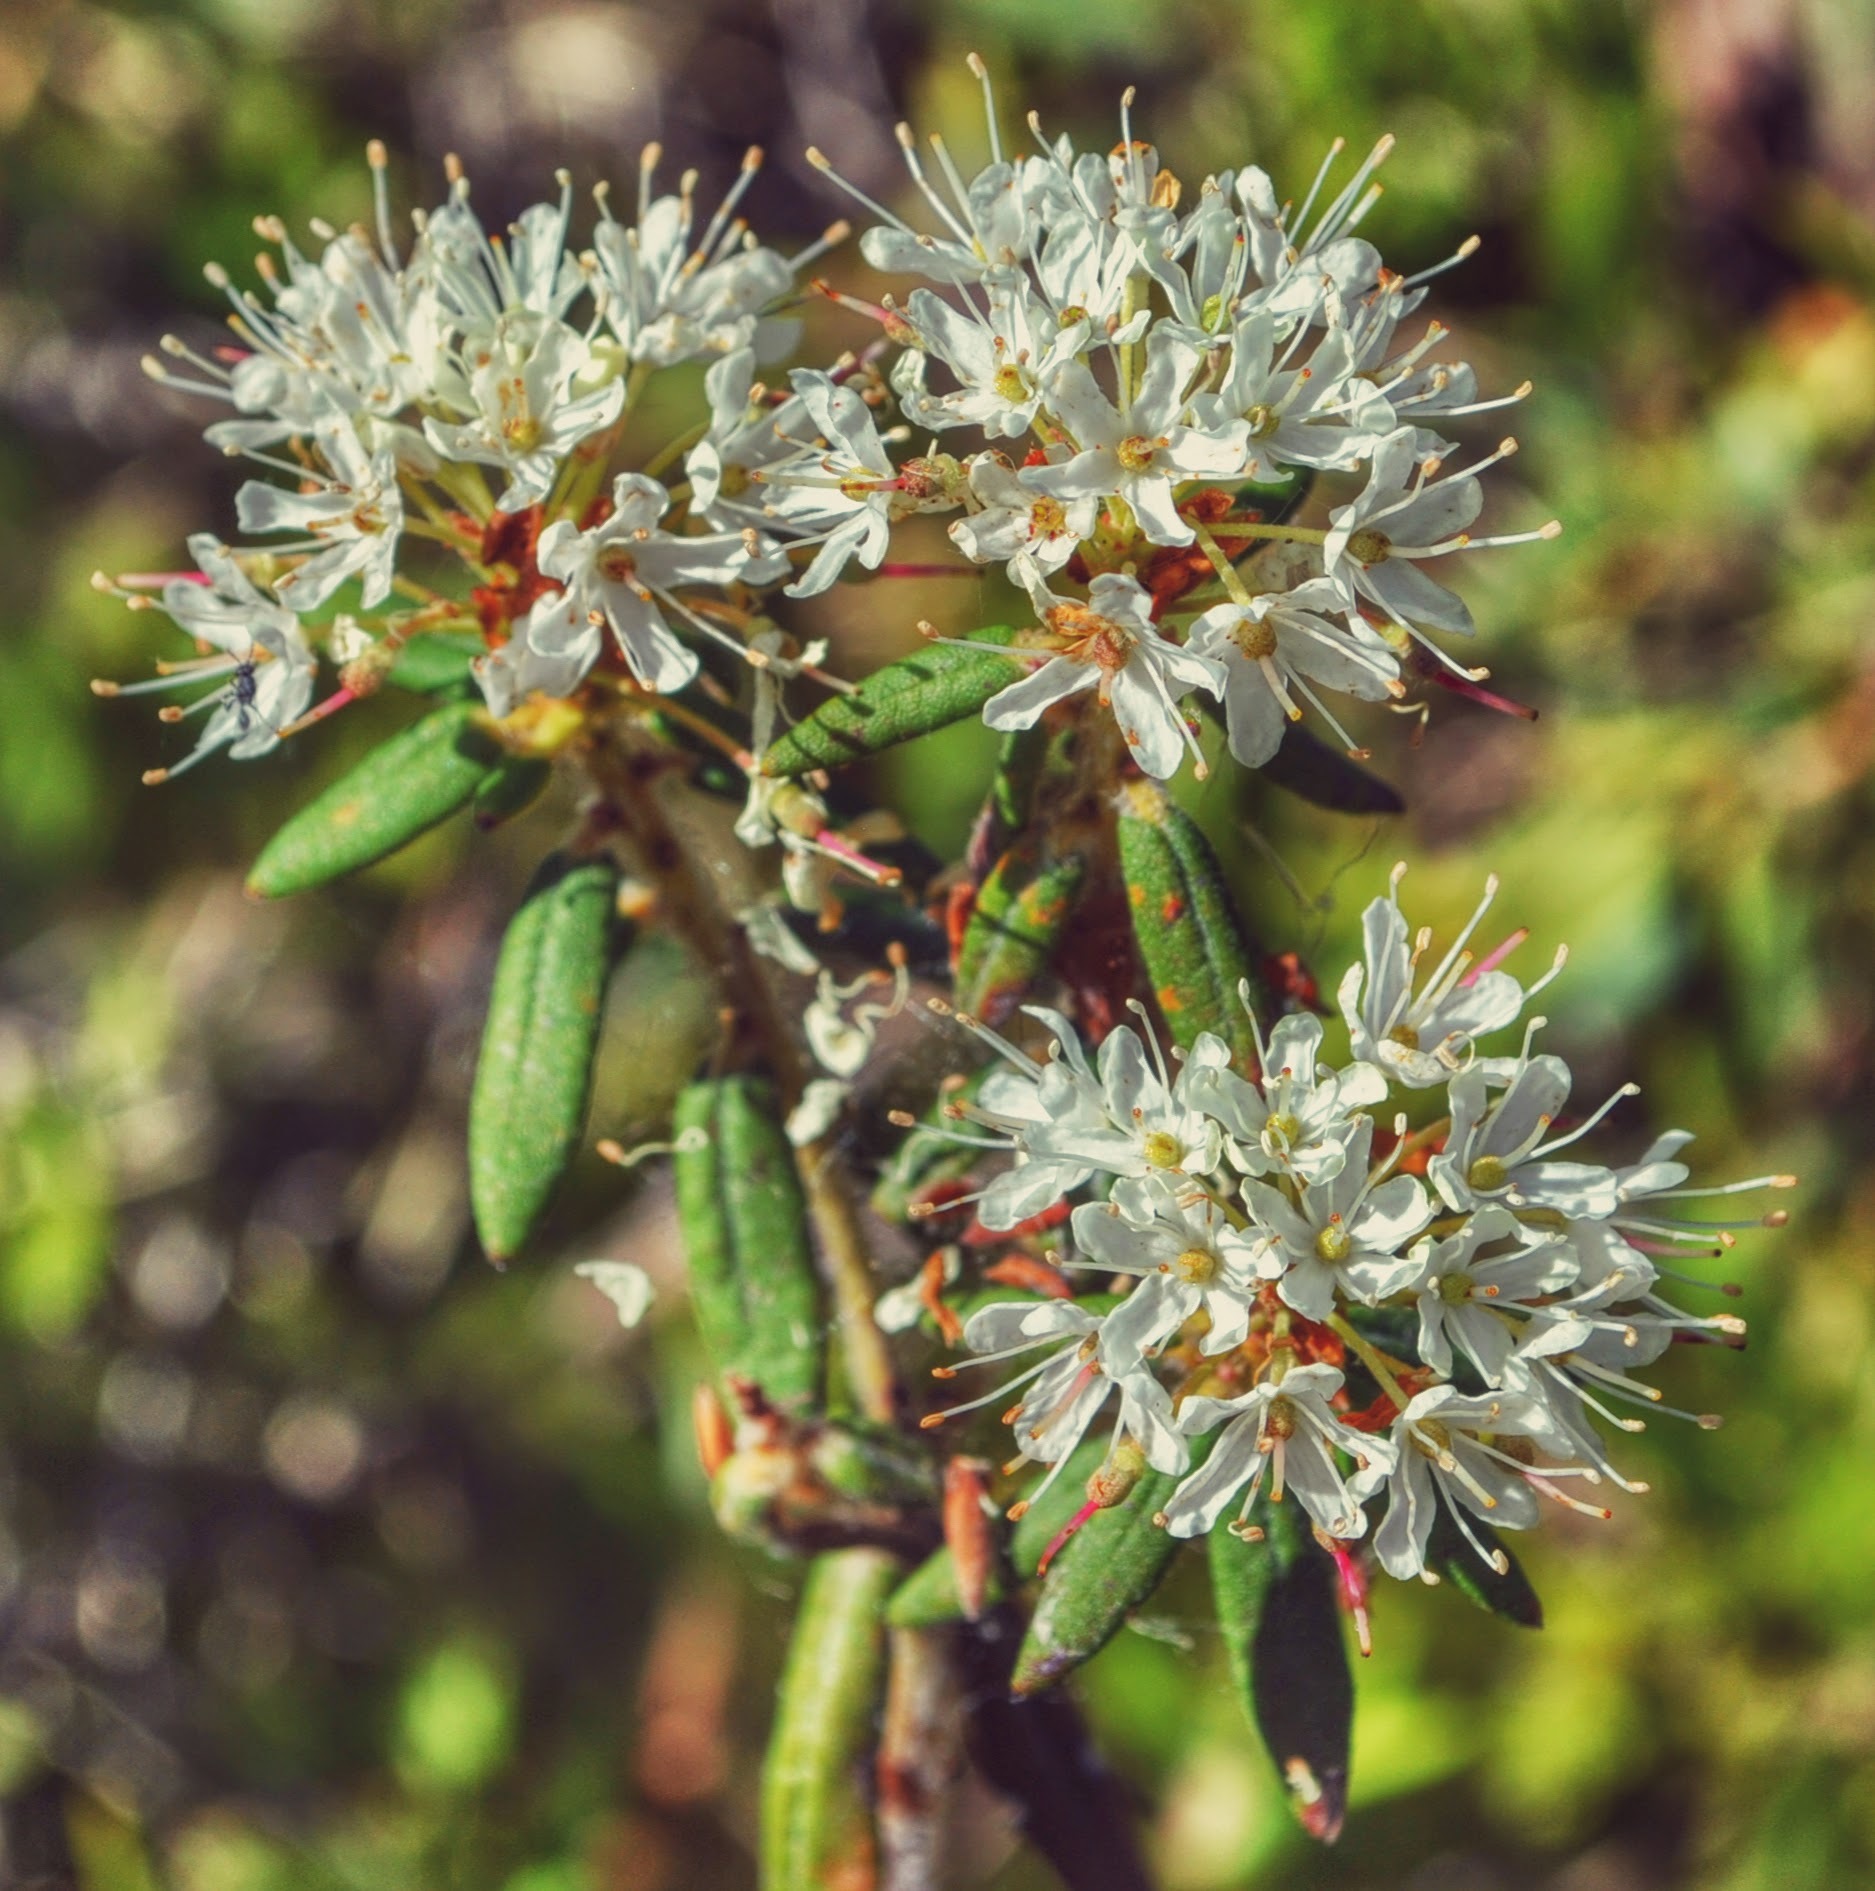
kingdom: Plantae
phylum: Tracheophyta
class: Magnoliopsida
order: Ericales
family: Ericaceae
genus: Rhododendron
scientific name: Rhododendron groenlandicum
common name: Bog labrador tea
